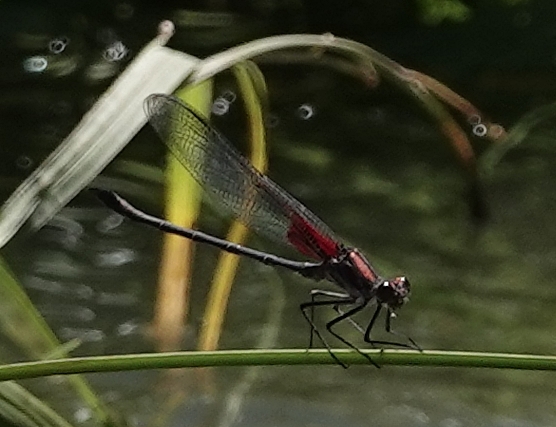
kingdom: Animalia
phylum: Arthropoda
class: Insecta
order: Odonata
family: Calopterygidae
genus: Hetaerina
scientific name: Hetaerina americana
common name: American rubyspot
